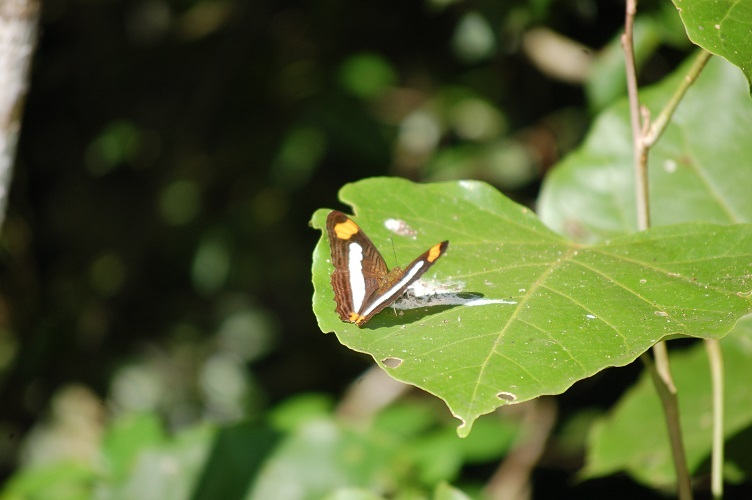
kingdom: Animalia
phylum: Arthropoda
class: Insecta
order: Lepidoptera
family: Nymphalidae
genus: Limenitis
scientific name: Limenitis iphiclus
